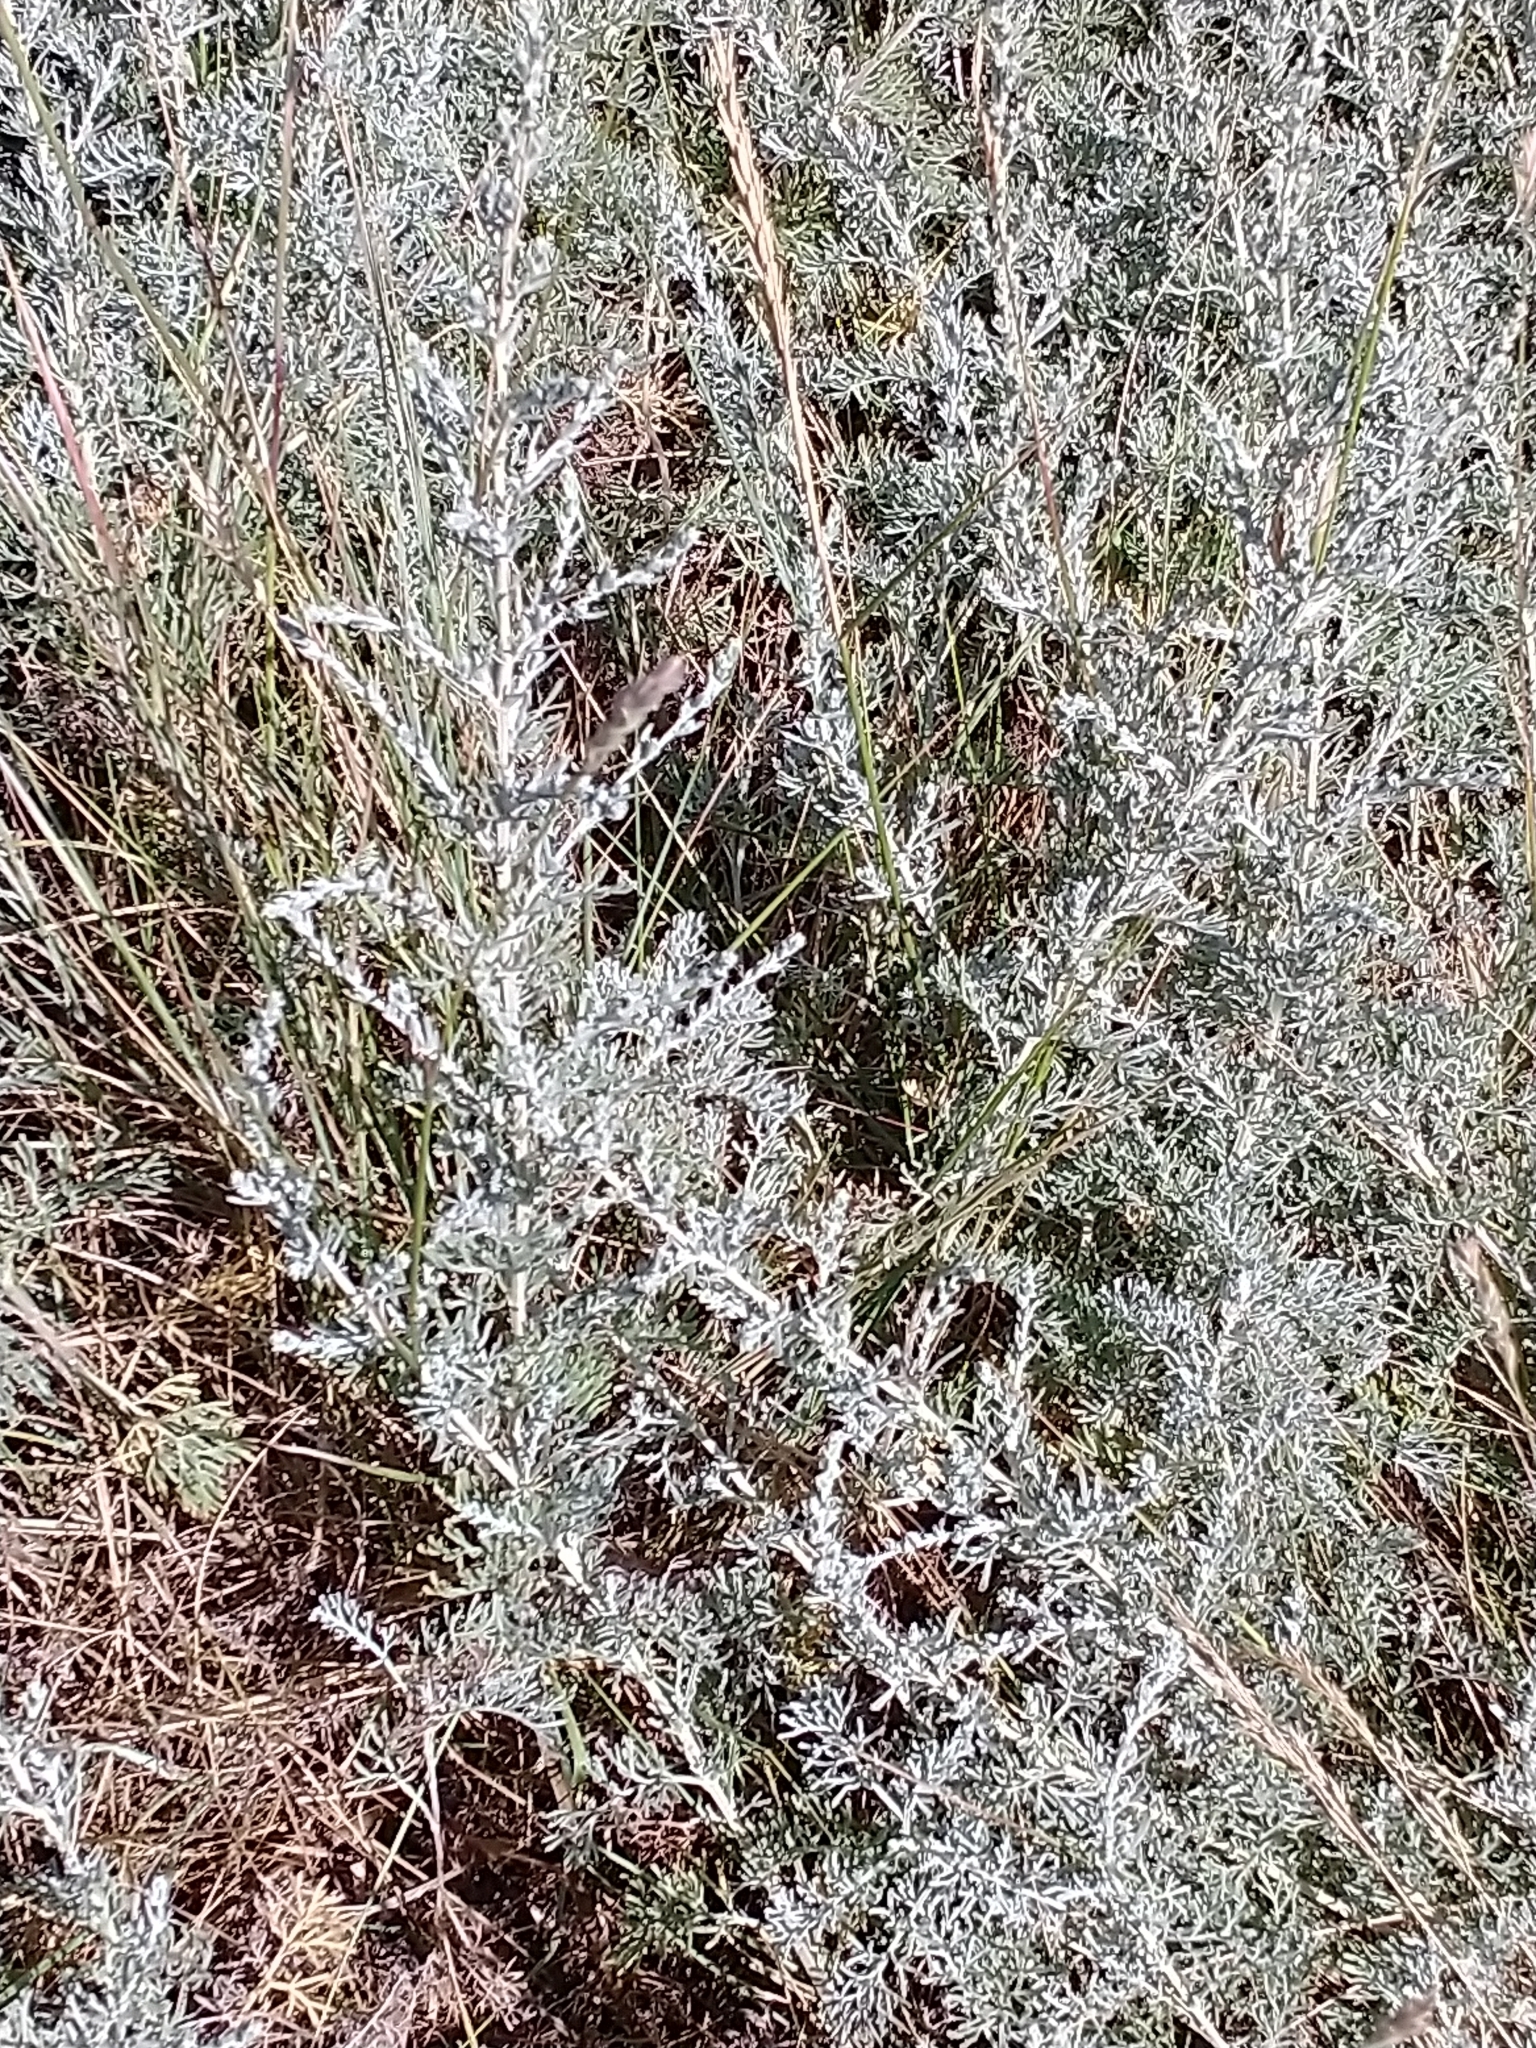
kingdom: Plantae
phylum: Tracheophyta
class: Magnoliopsida
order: Asterales
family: Asteraceae
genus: Artemisia
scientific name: Artemisia maritima
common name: Wormseed
